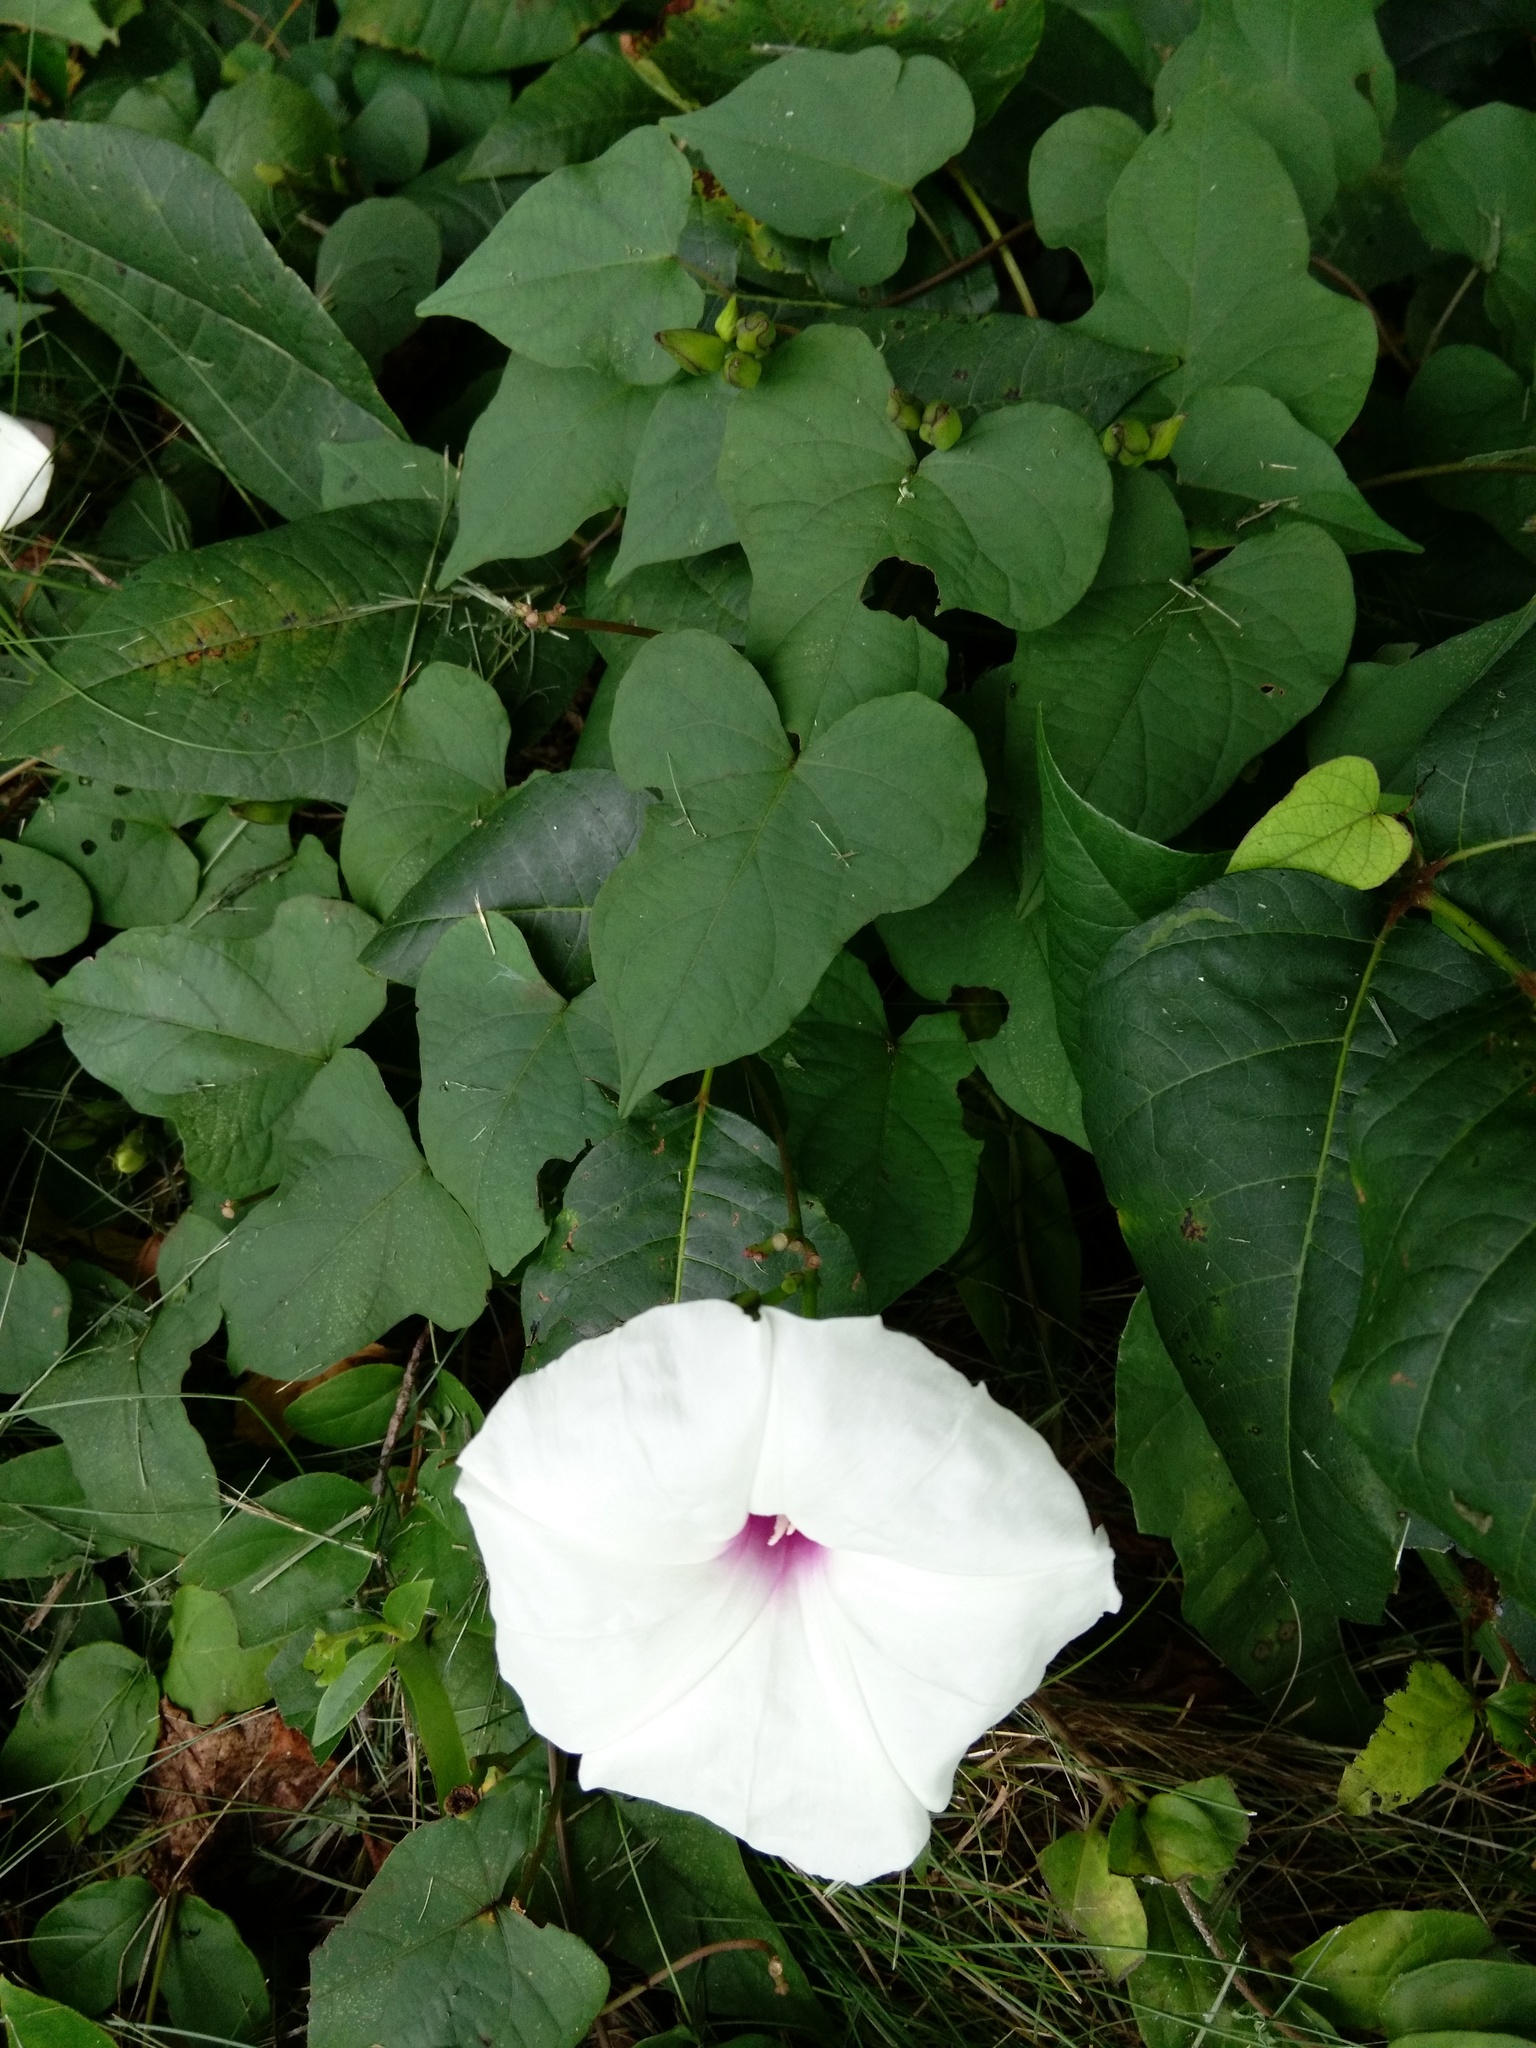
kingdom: Plantae
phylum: Tracheophyta
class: Magnoliopsida
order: Solanales
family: Convolvulaceae
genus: Ipomoea
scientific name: Ipomoea pandurata
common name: Man-of-the-earth
